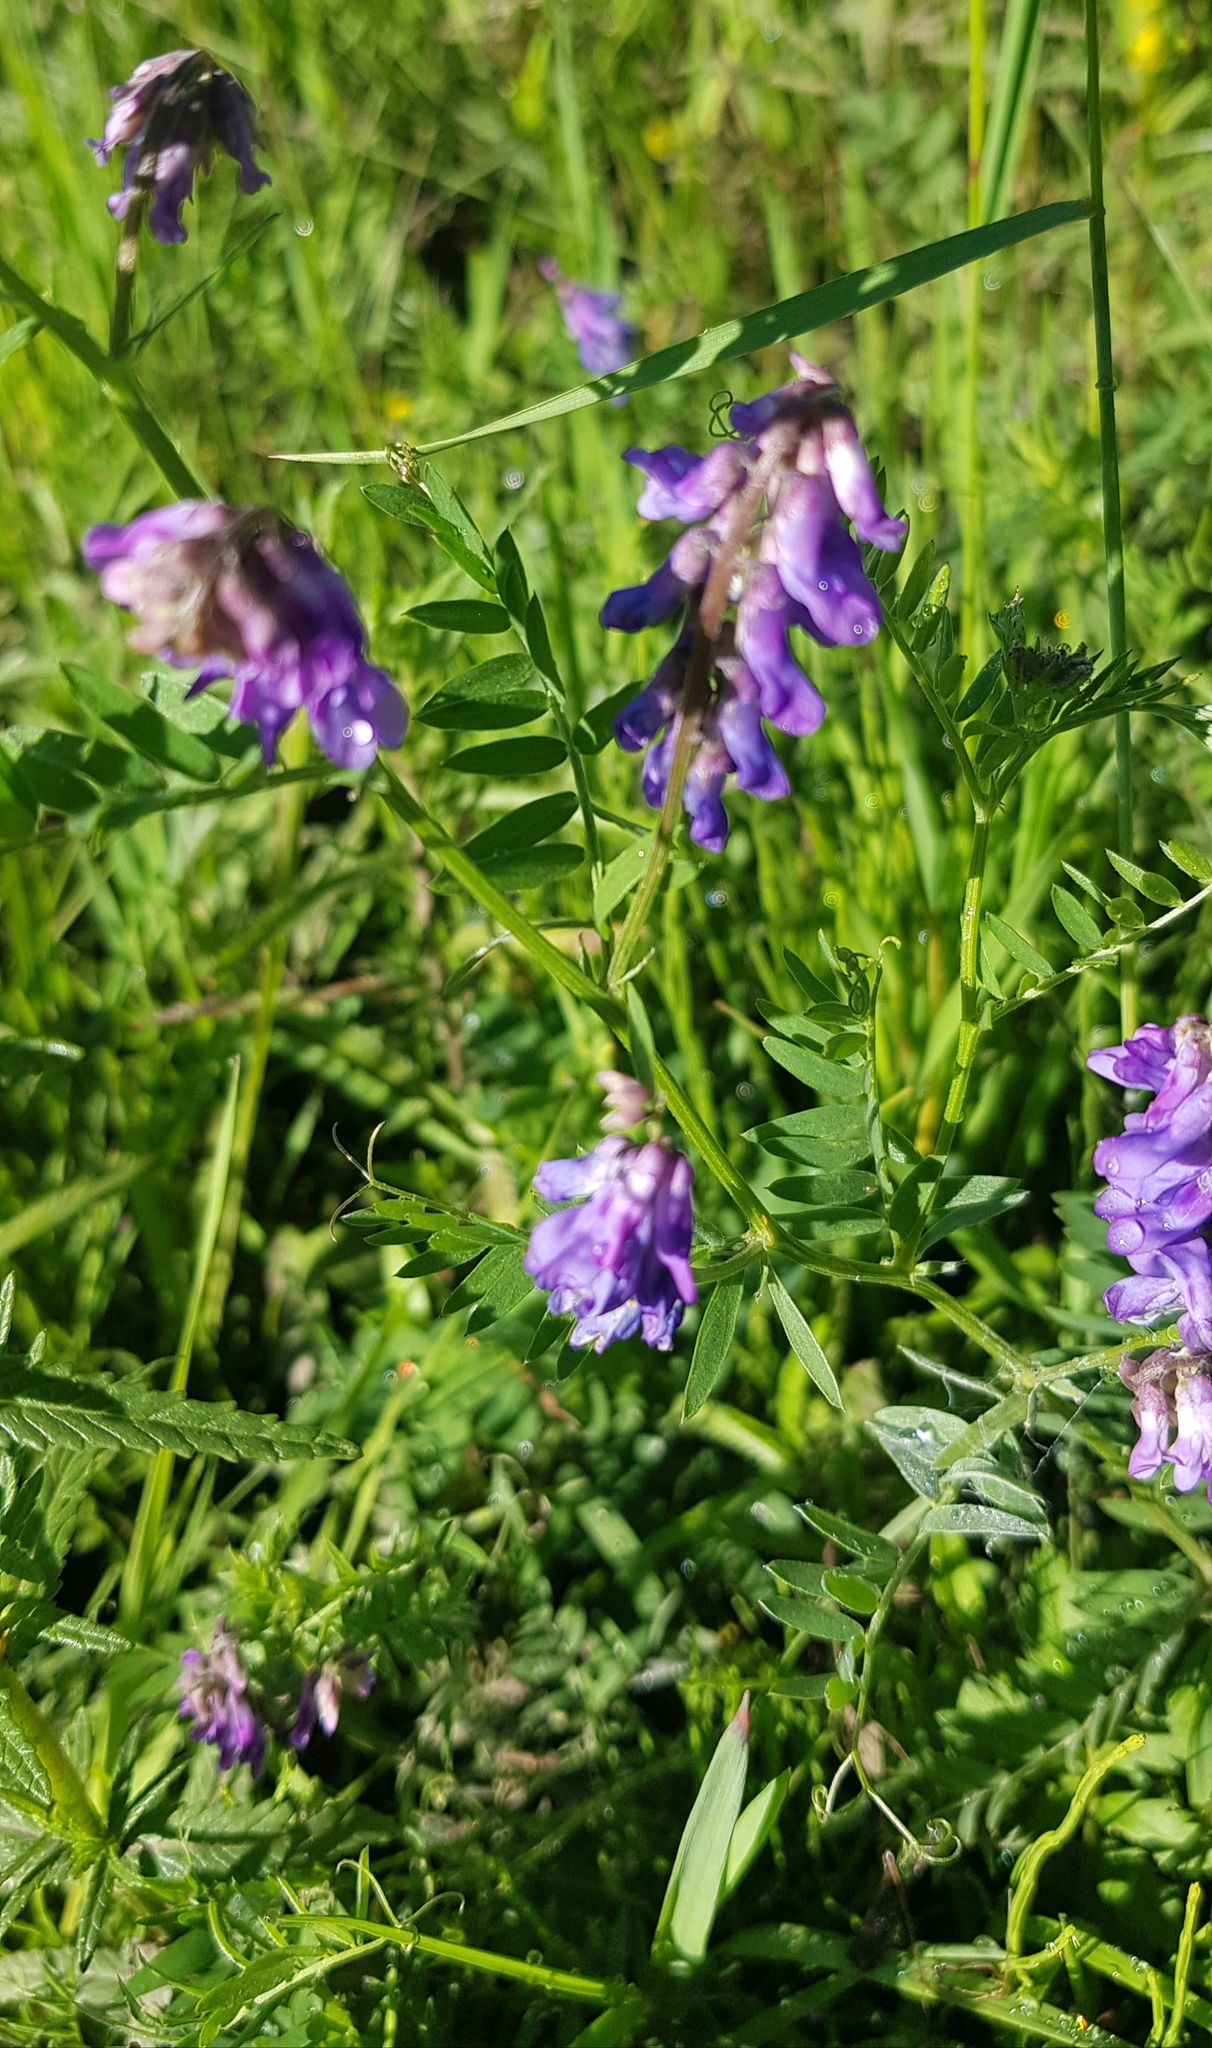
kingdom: Plantae
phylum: Tracheophyta
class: Magnoliopsida
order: Fabales
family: Fabaceae
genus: Vicia
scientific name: Vicia cracca
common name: Bird vetch
